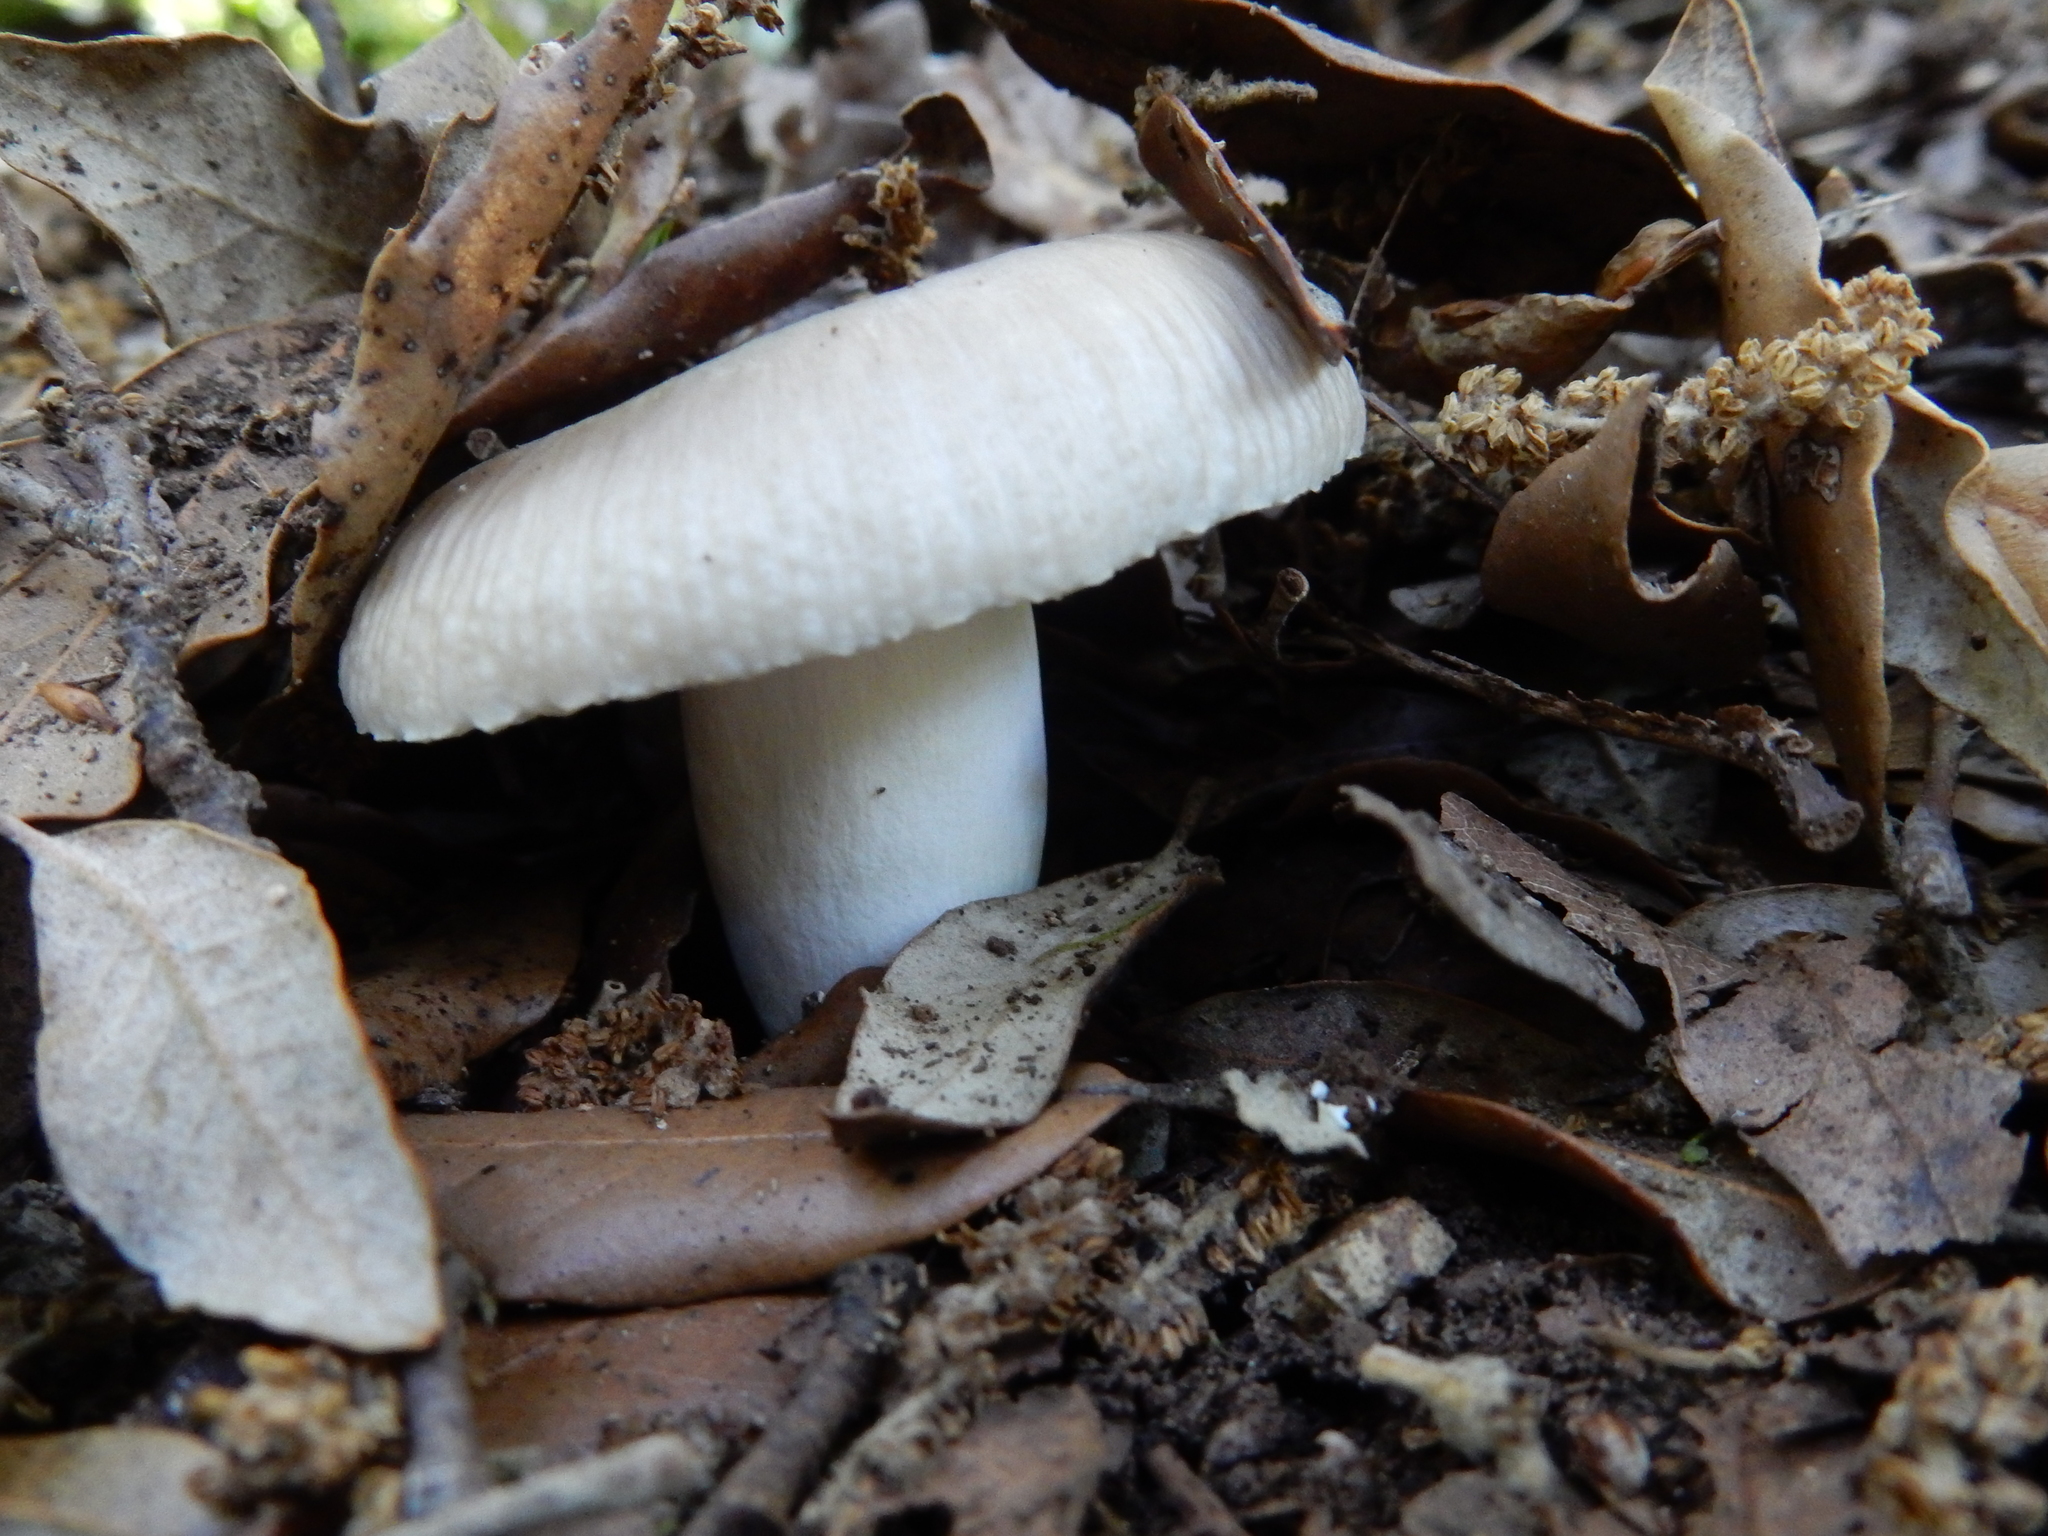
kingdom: Fungi
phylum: Basidiomycota
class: Agaricomycetes
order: Russulales
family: Russulaceae
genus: Russula
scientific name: Russula amoenolens
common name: Camembert brittlegill
